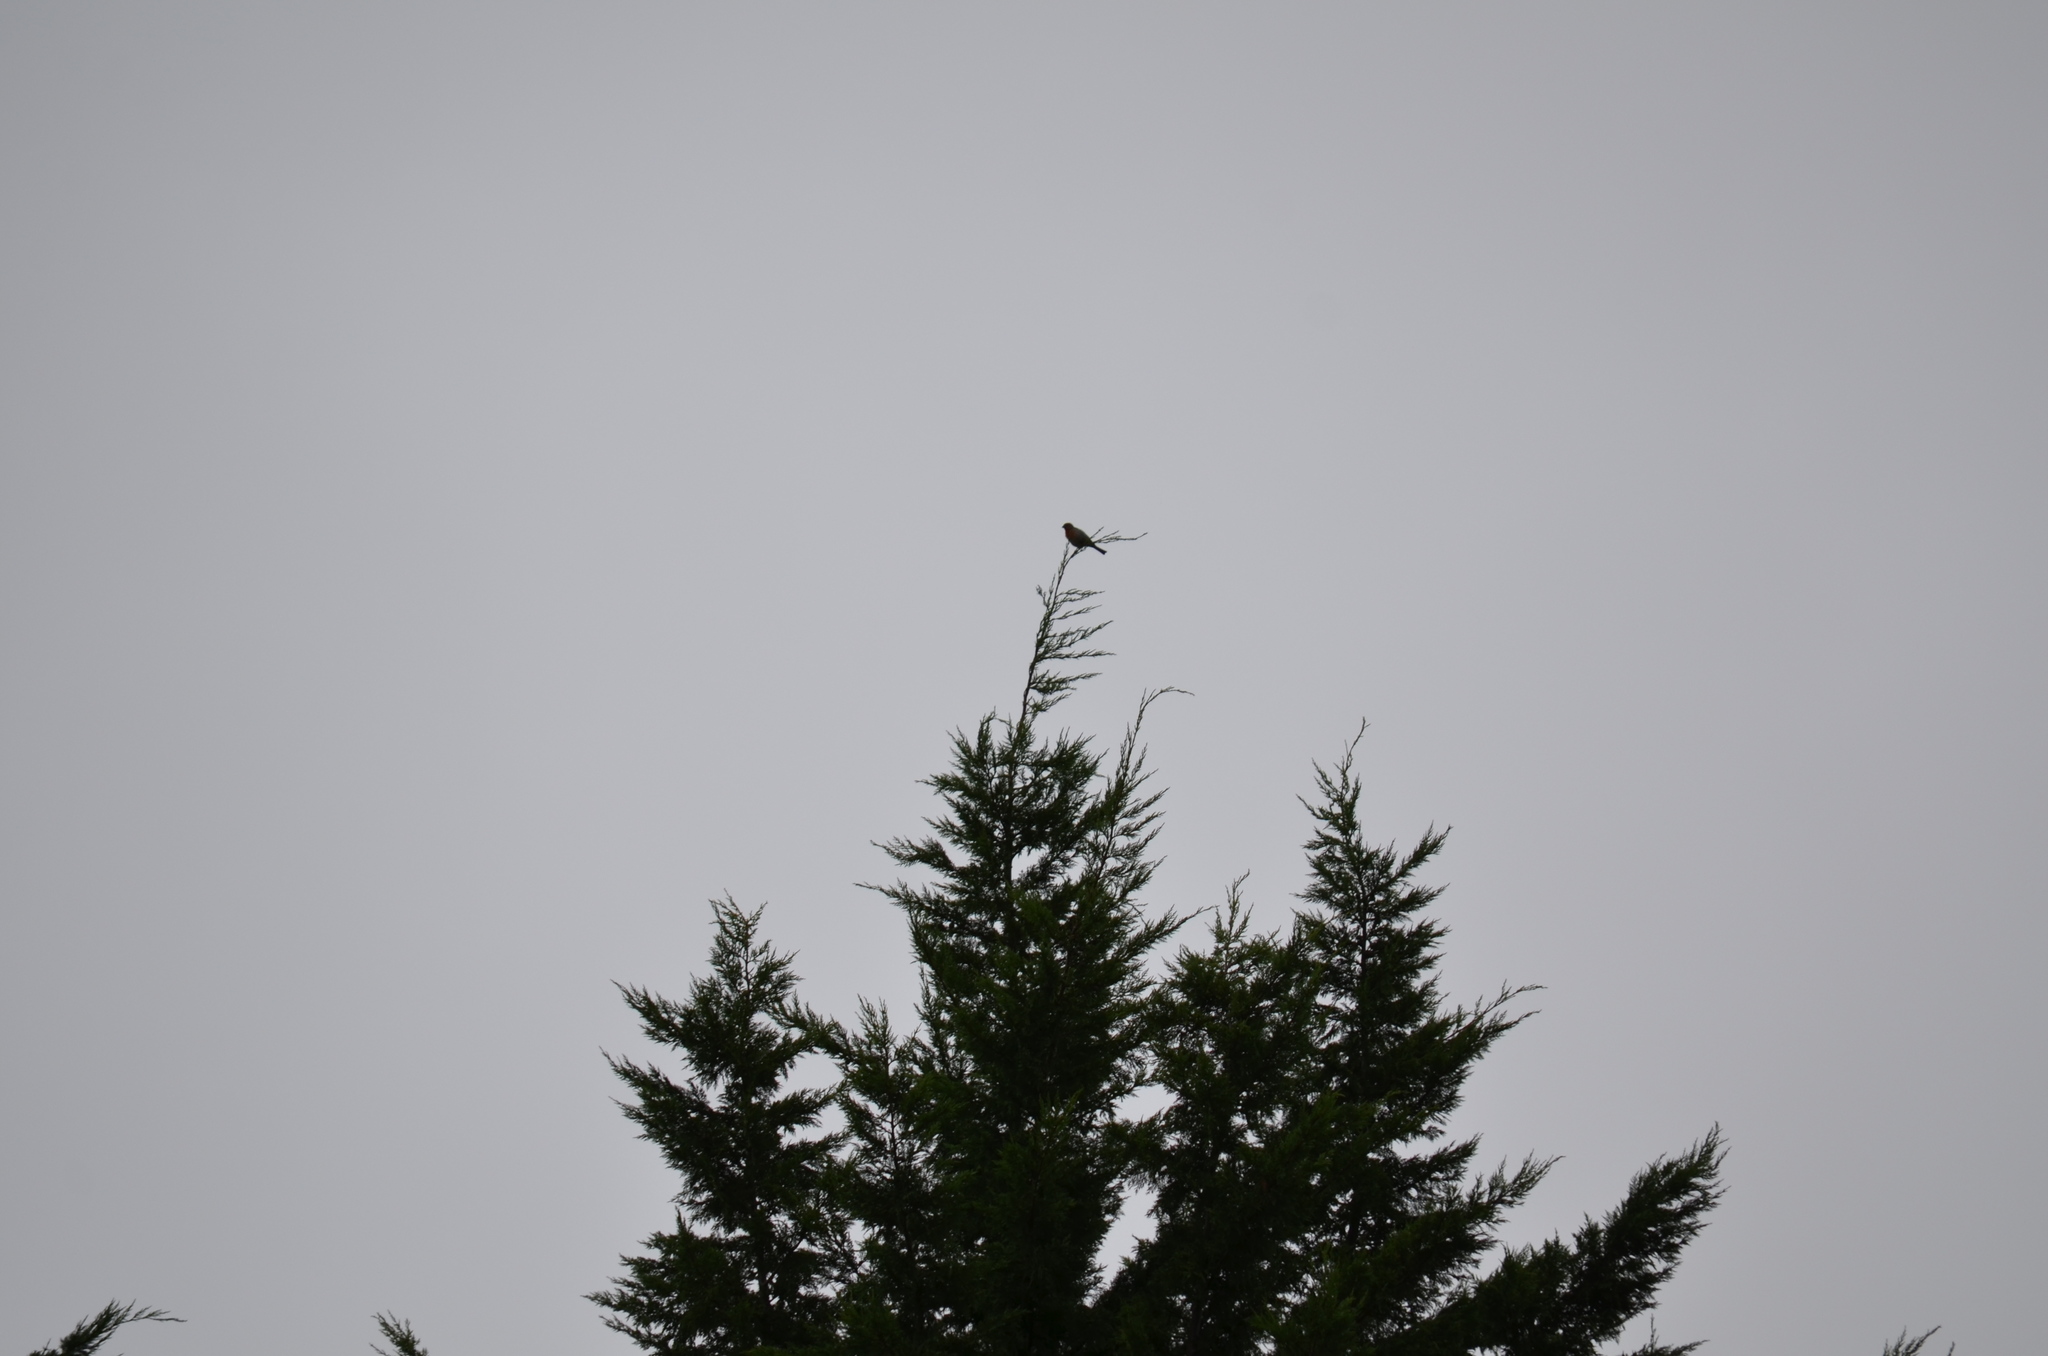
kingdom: Animalia
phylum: Chordata
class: Aves
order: Passeriformes
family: Turdidae
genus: Turdus
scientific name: Turdus migratorius
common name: American robin
